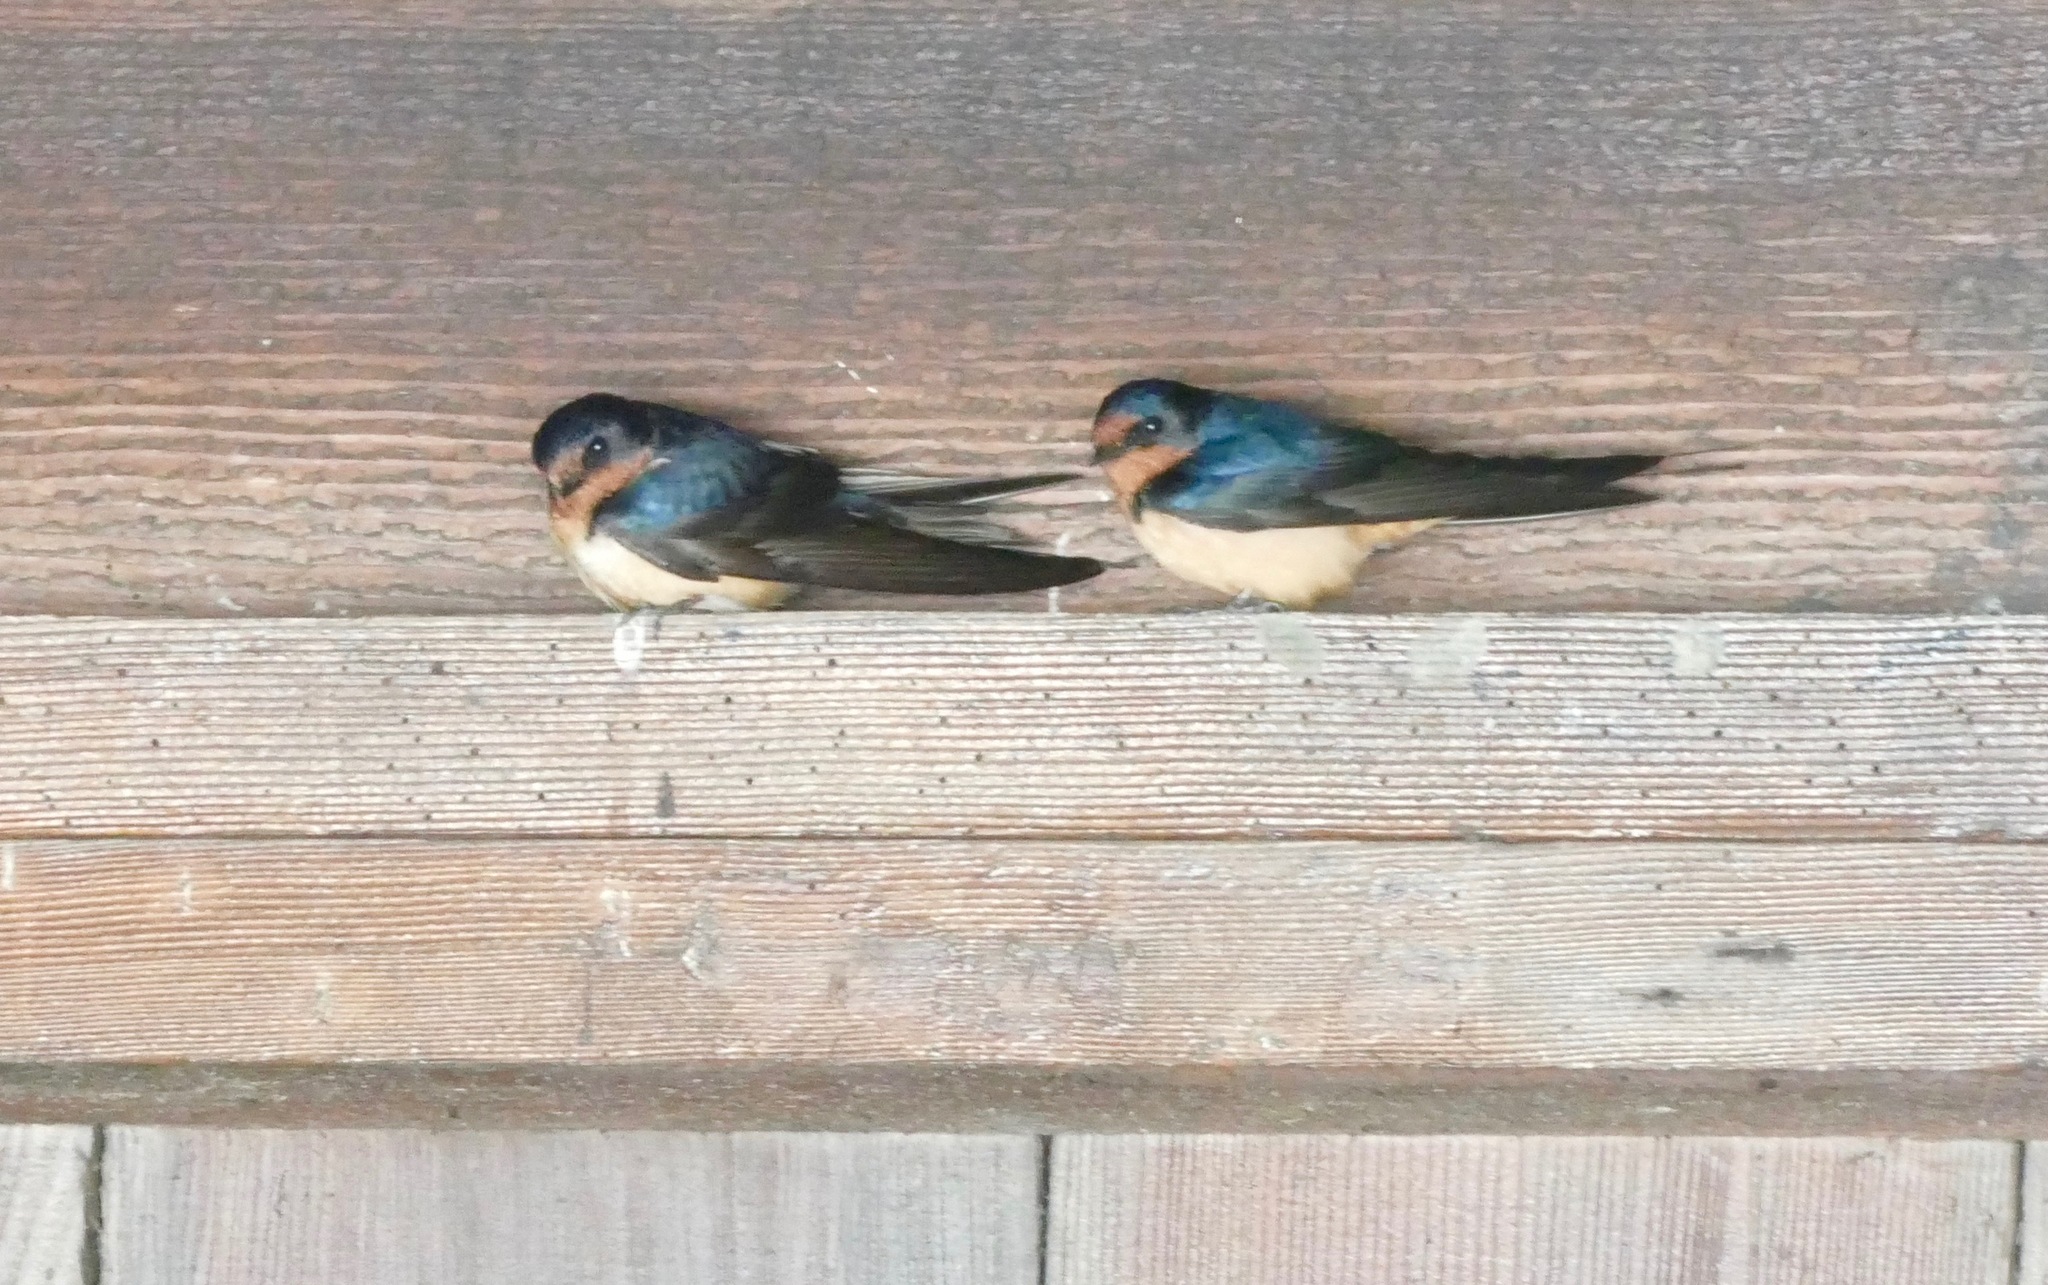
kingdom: Animalia
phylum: Chordata
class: Aves
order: Passeriformes
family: Hirundinidae
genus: Hirundo
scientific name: Hirundo rustica
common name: Barn swallow
